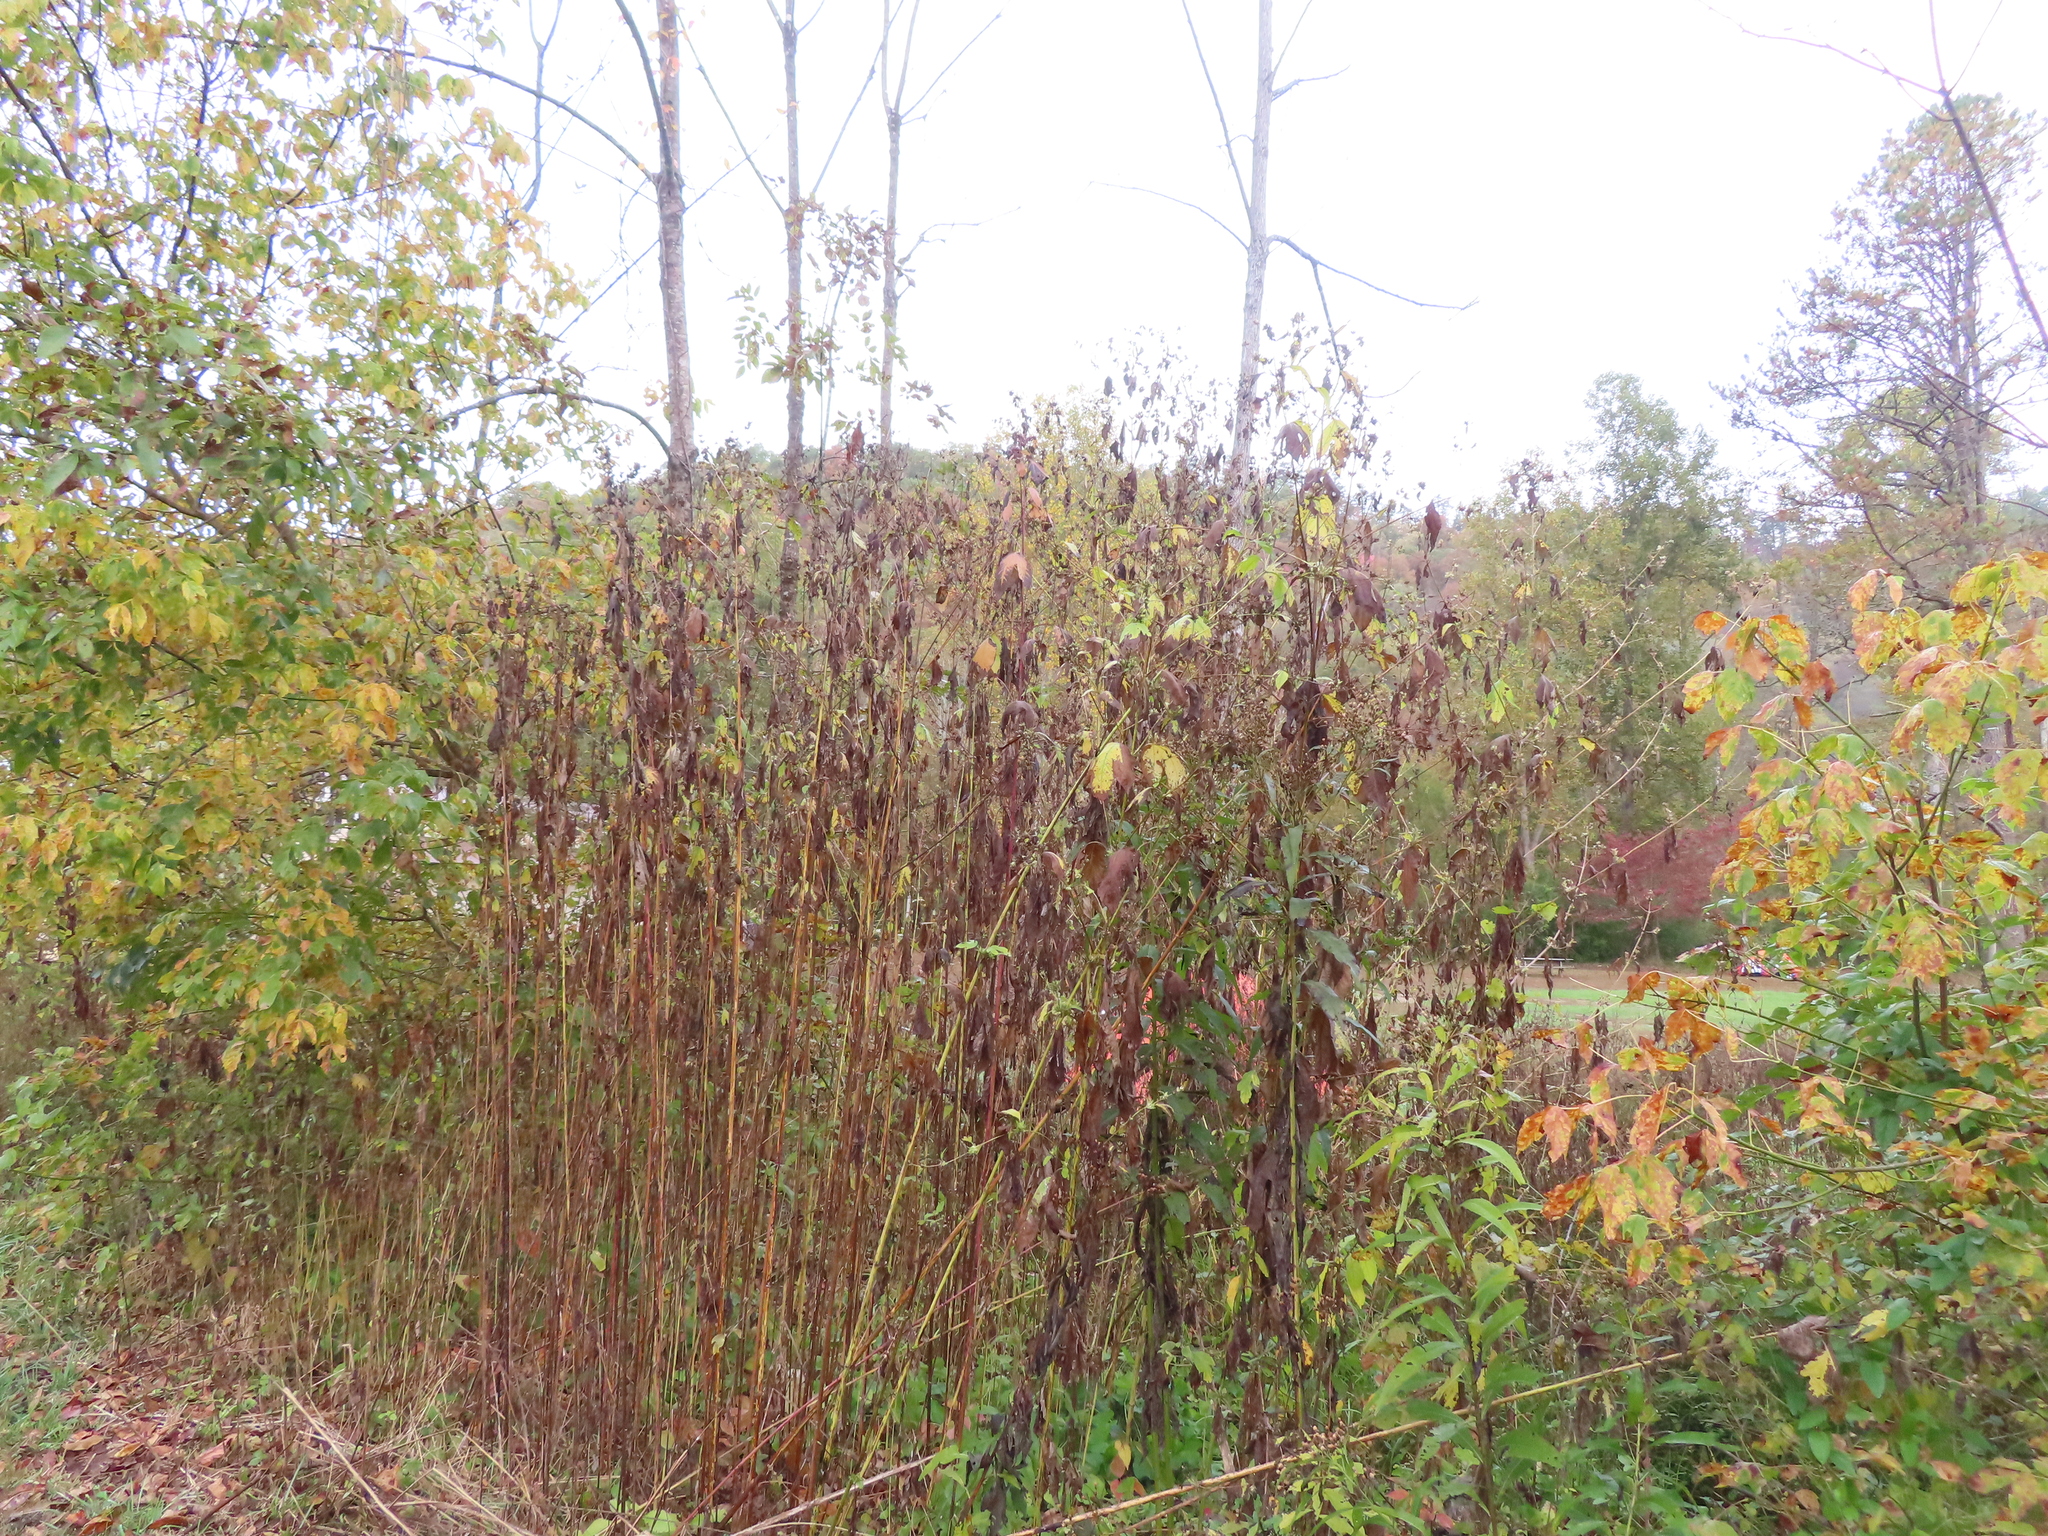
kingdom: Plantae
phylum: Tracheophyta
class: Magnoliopsida
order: Asterales
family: Asteraceae
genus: Ambrosia
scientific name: Ambrosia trifida
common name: Giant ragweed
